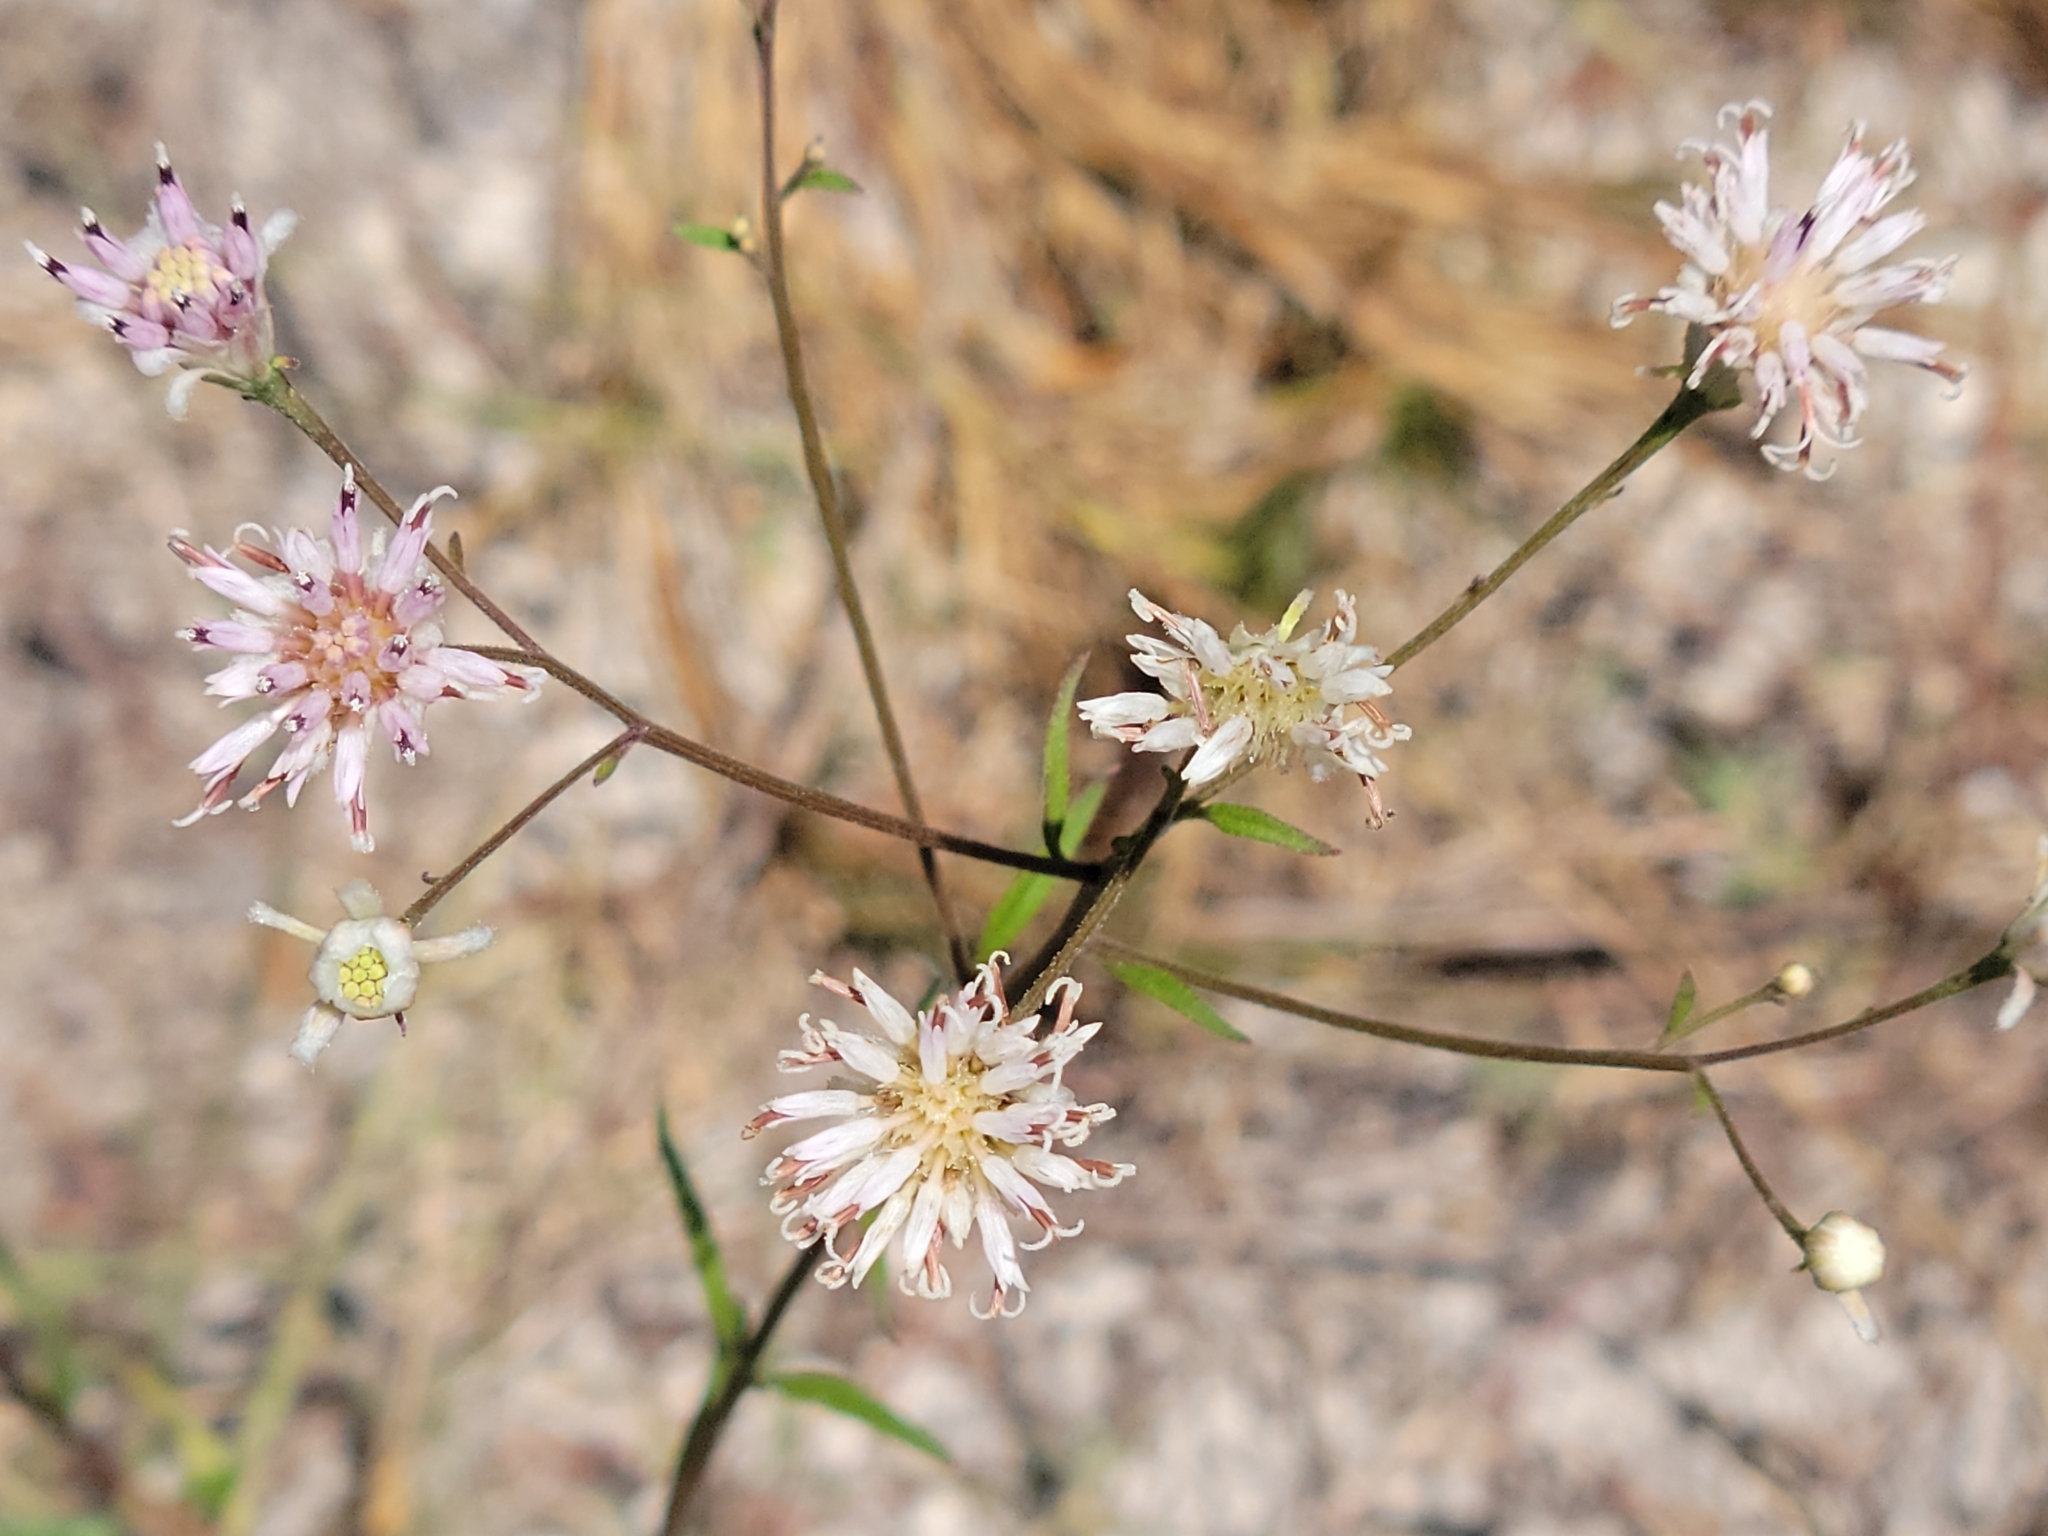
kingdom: Plantae
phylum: Tracheophyta
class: Magnoliopsida
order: Asterales
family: Asteraceae
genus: Palafoxia
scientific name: Palafoxia integrifolia
